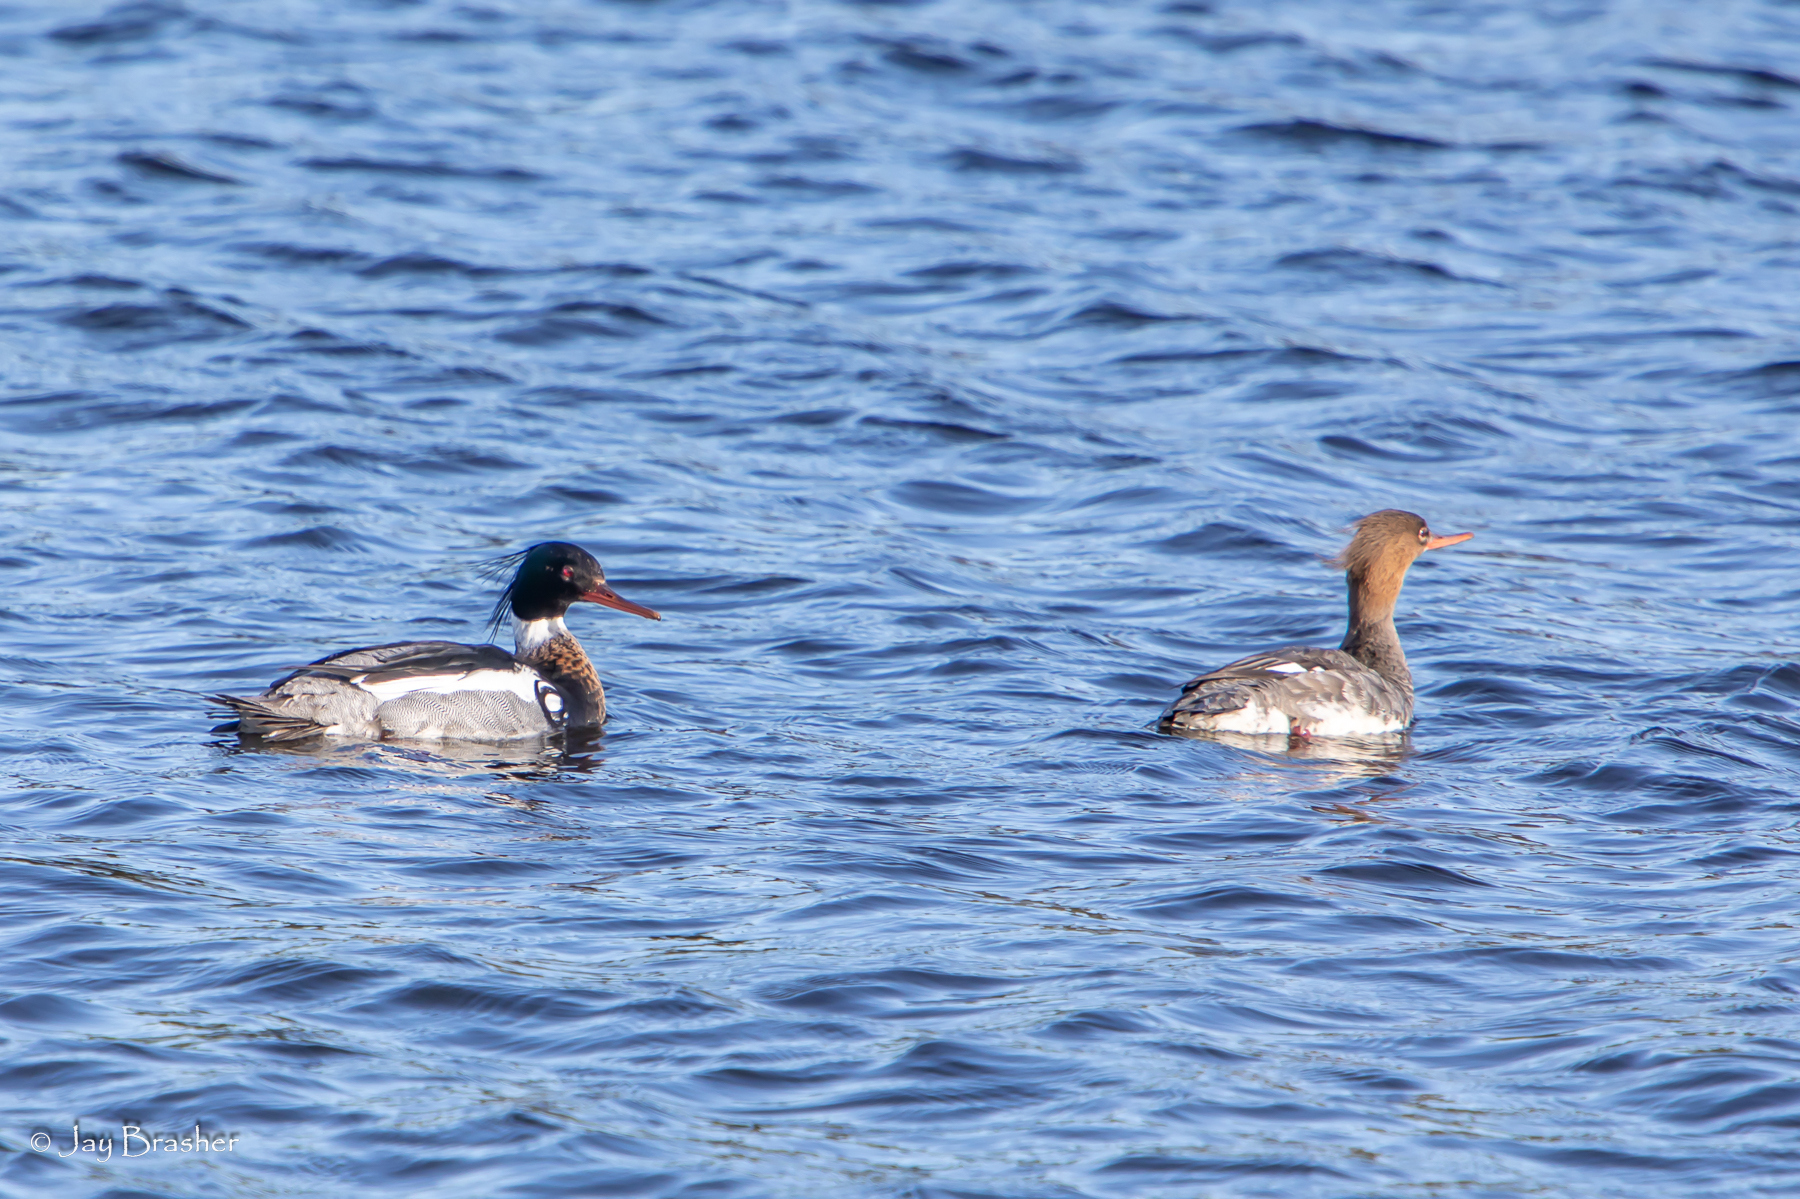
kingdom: Animalia
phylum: Chordata
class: Aves
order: Anseriformes
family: Anatidae
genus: Mergus
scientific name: Mergus serrator
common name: Red-breasted merganser
